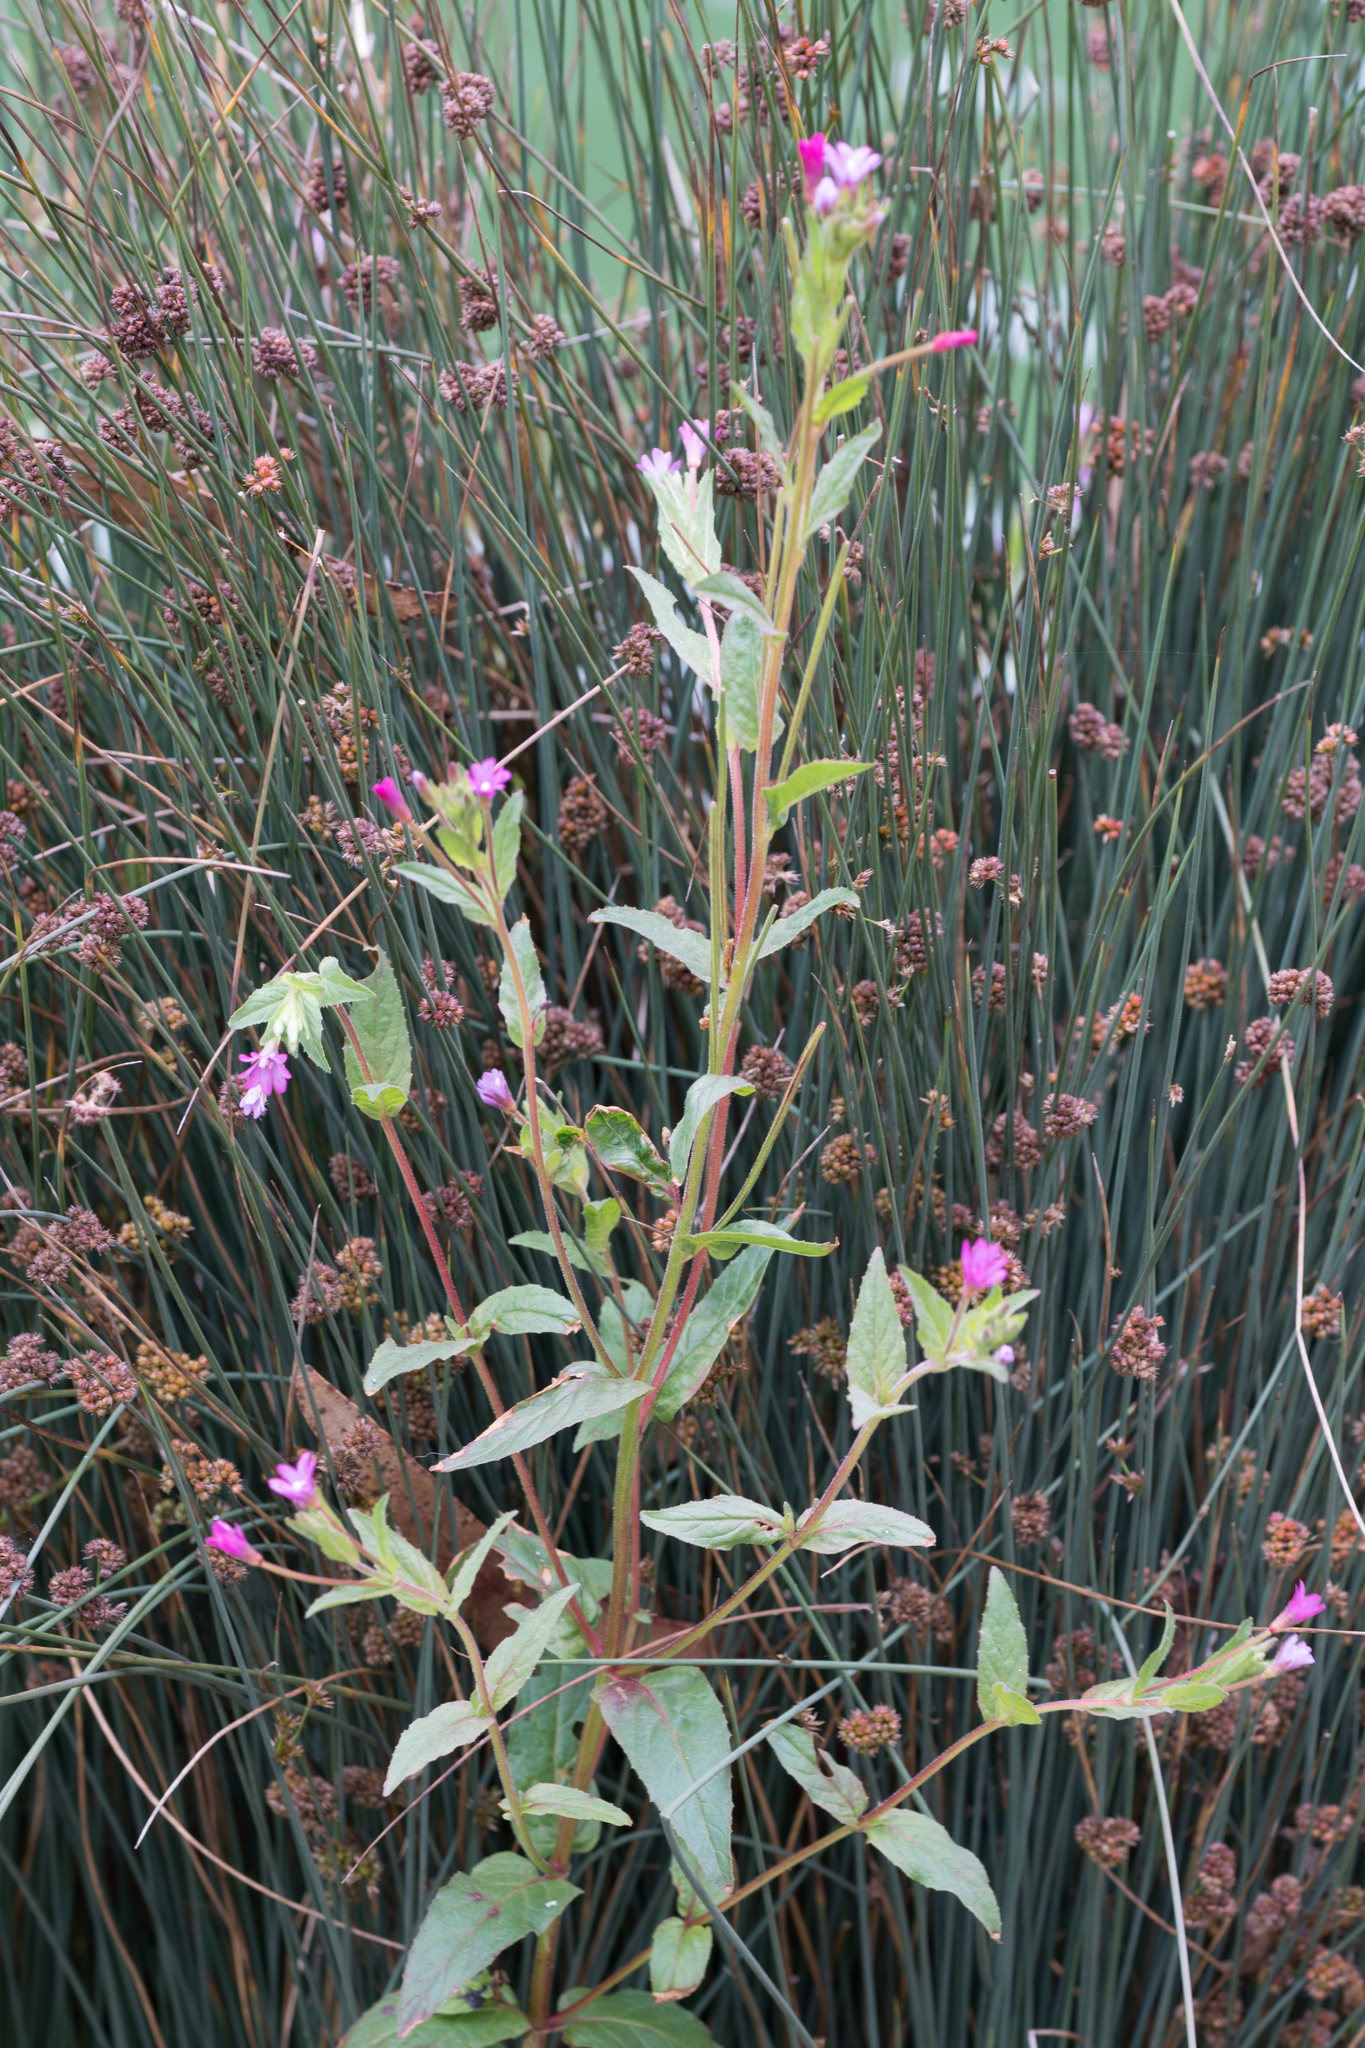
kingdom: Plantae
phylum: Tracheophyta
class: Magnoliopsida
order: Myrtales
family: Onagraceae
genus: Epilobium
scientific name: Epilobium ciliatum
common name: American willowherb
